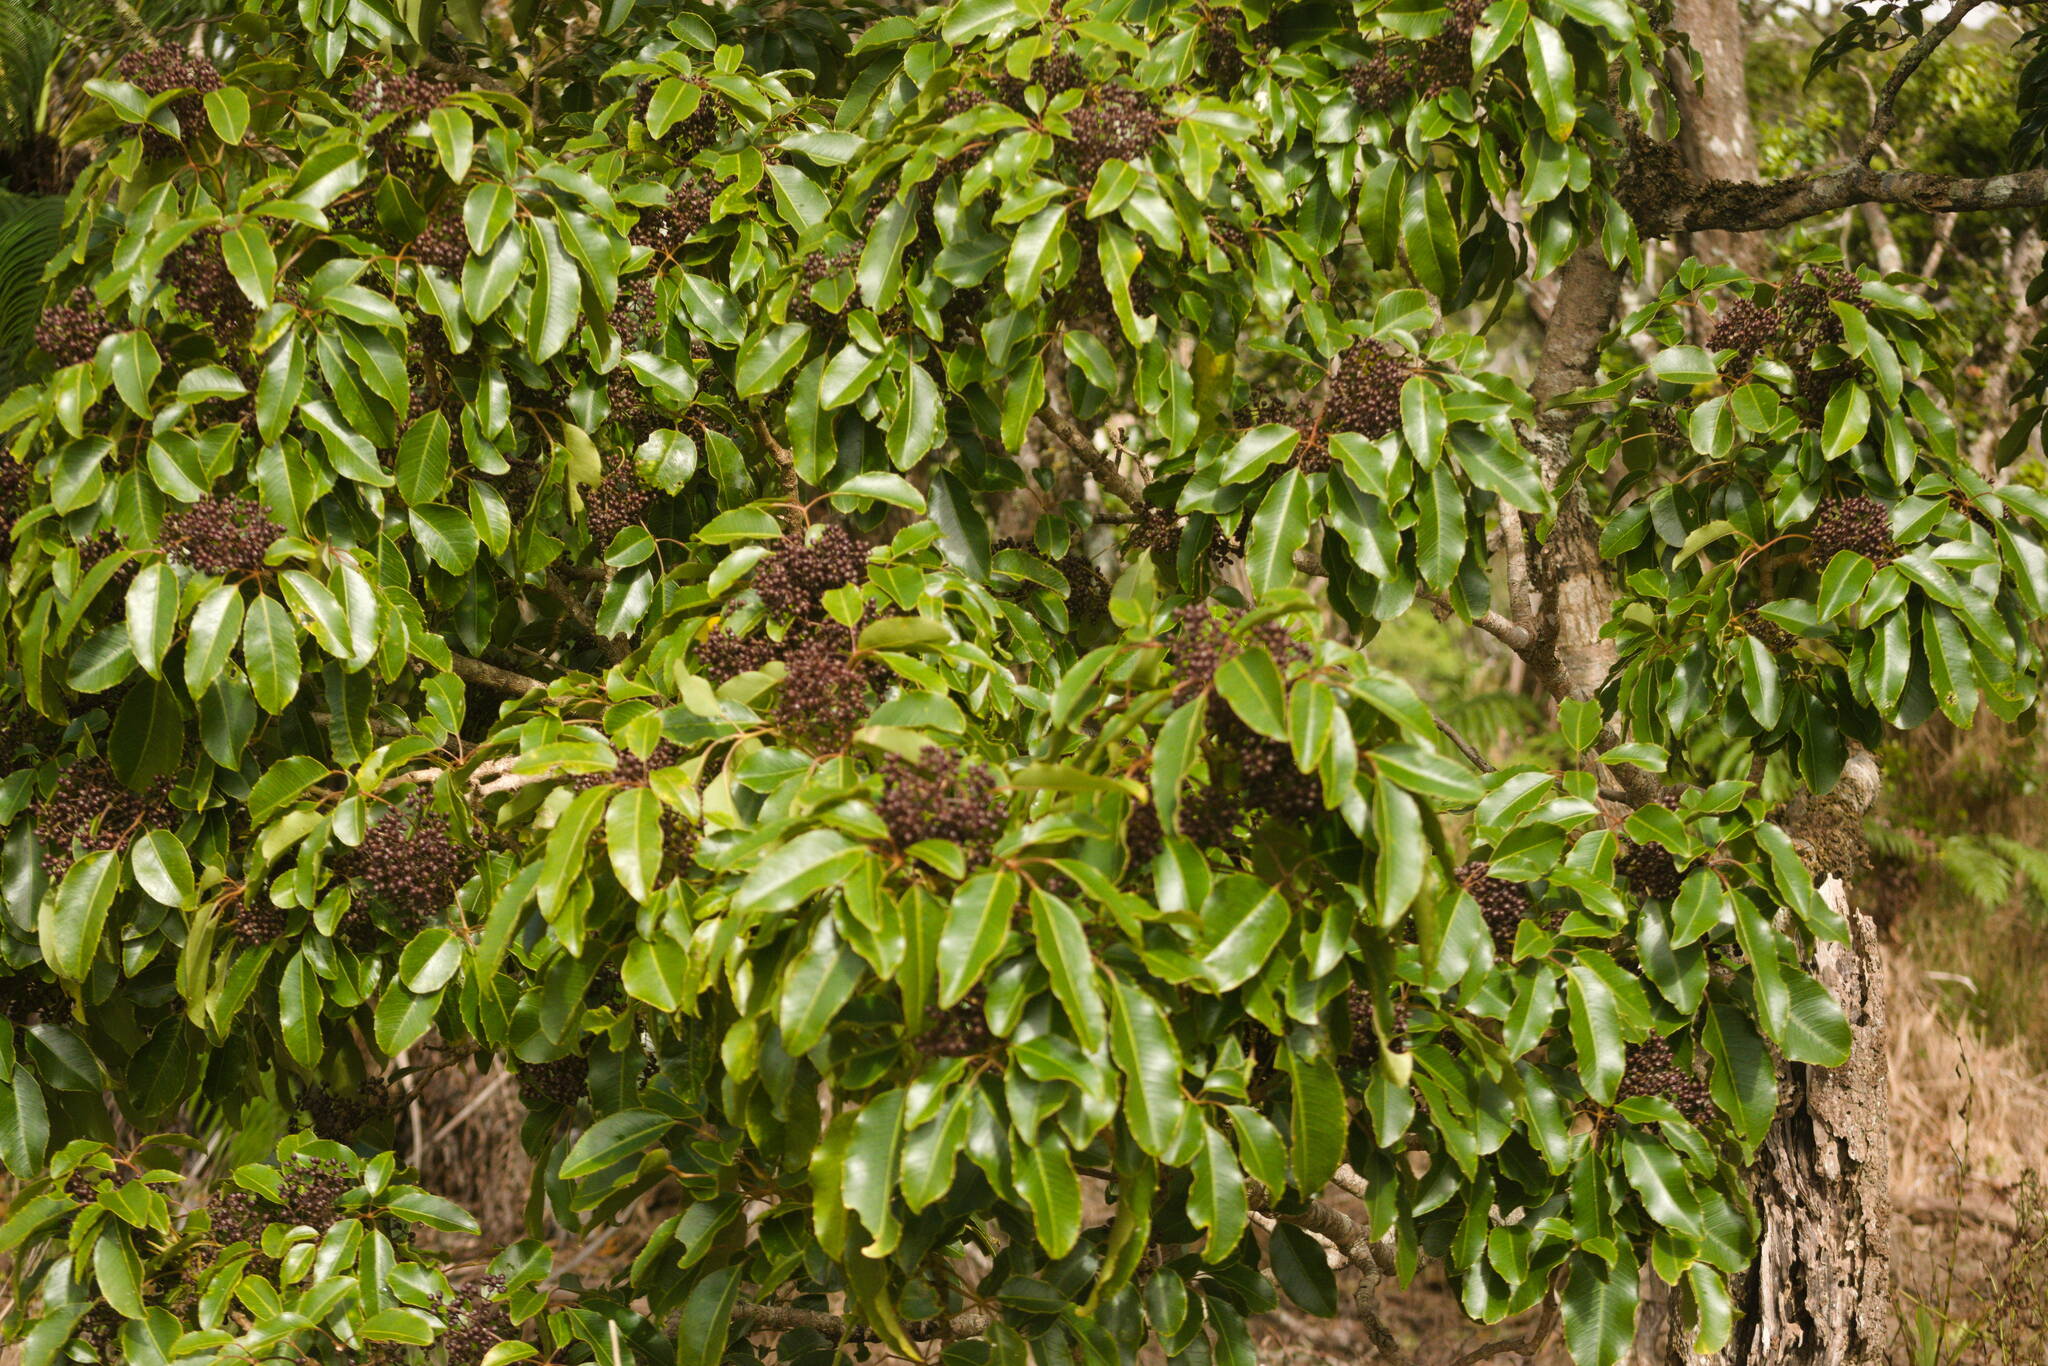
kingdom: Plantae
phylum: Tracheophyta
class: Magnoliopsida
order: Apiales
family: Araliaceae
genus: Cheirodendron
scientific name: Cheirodendron trigynum
